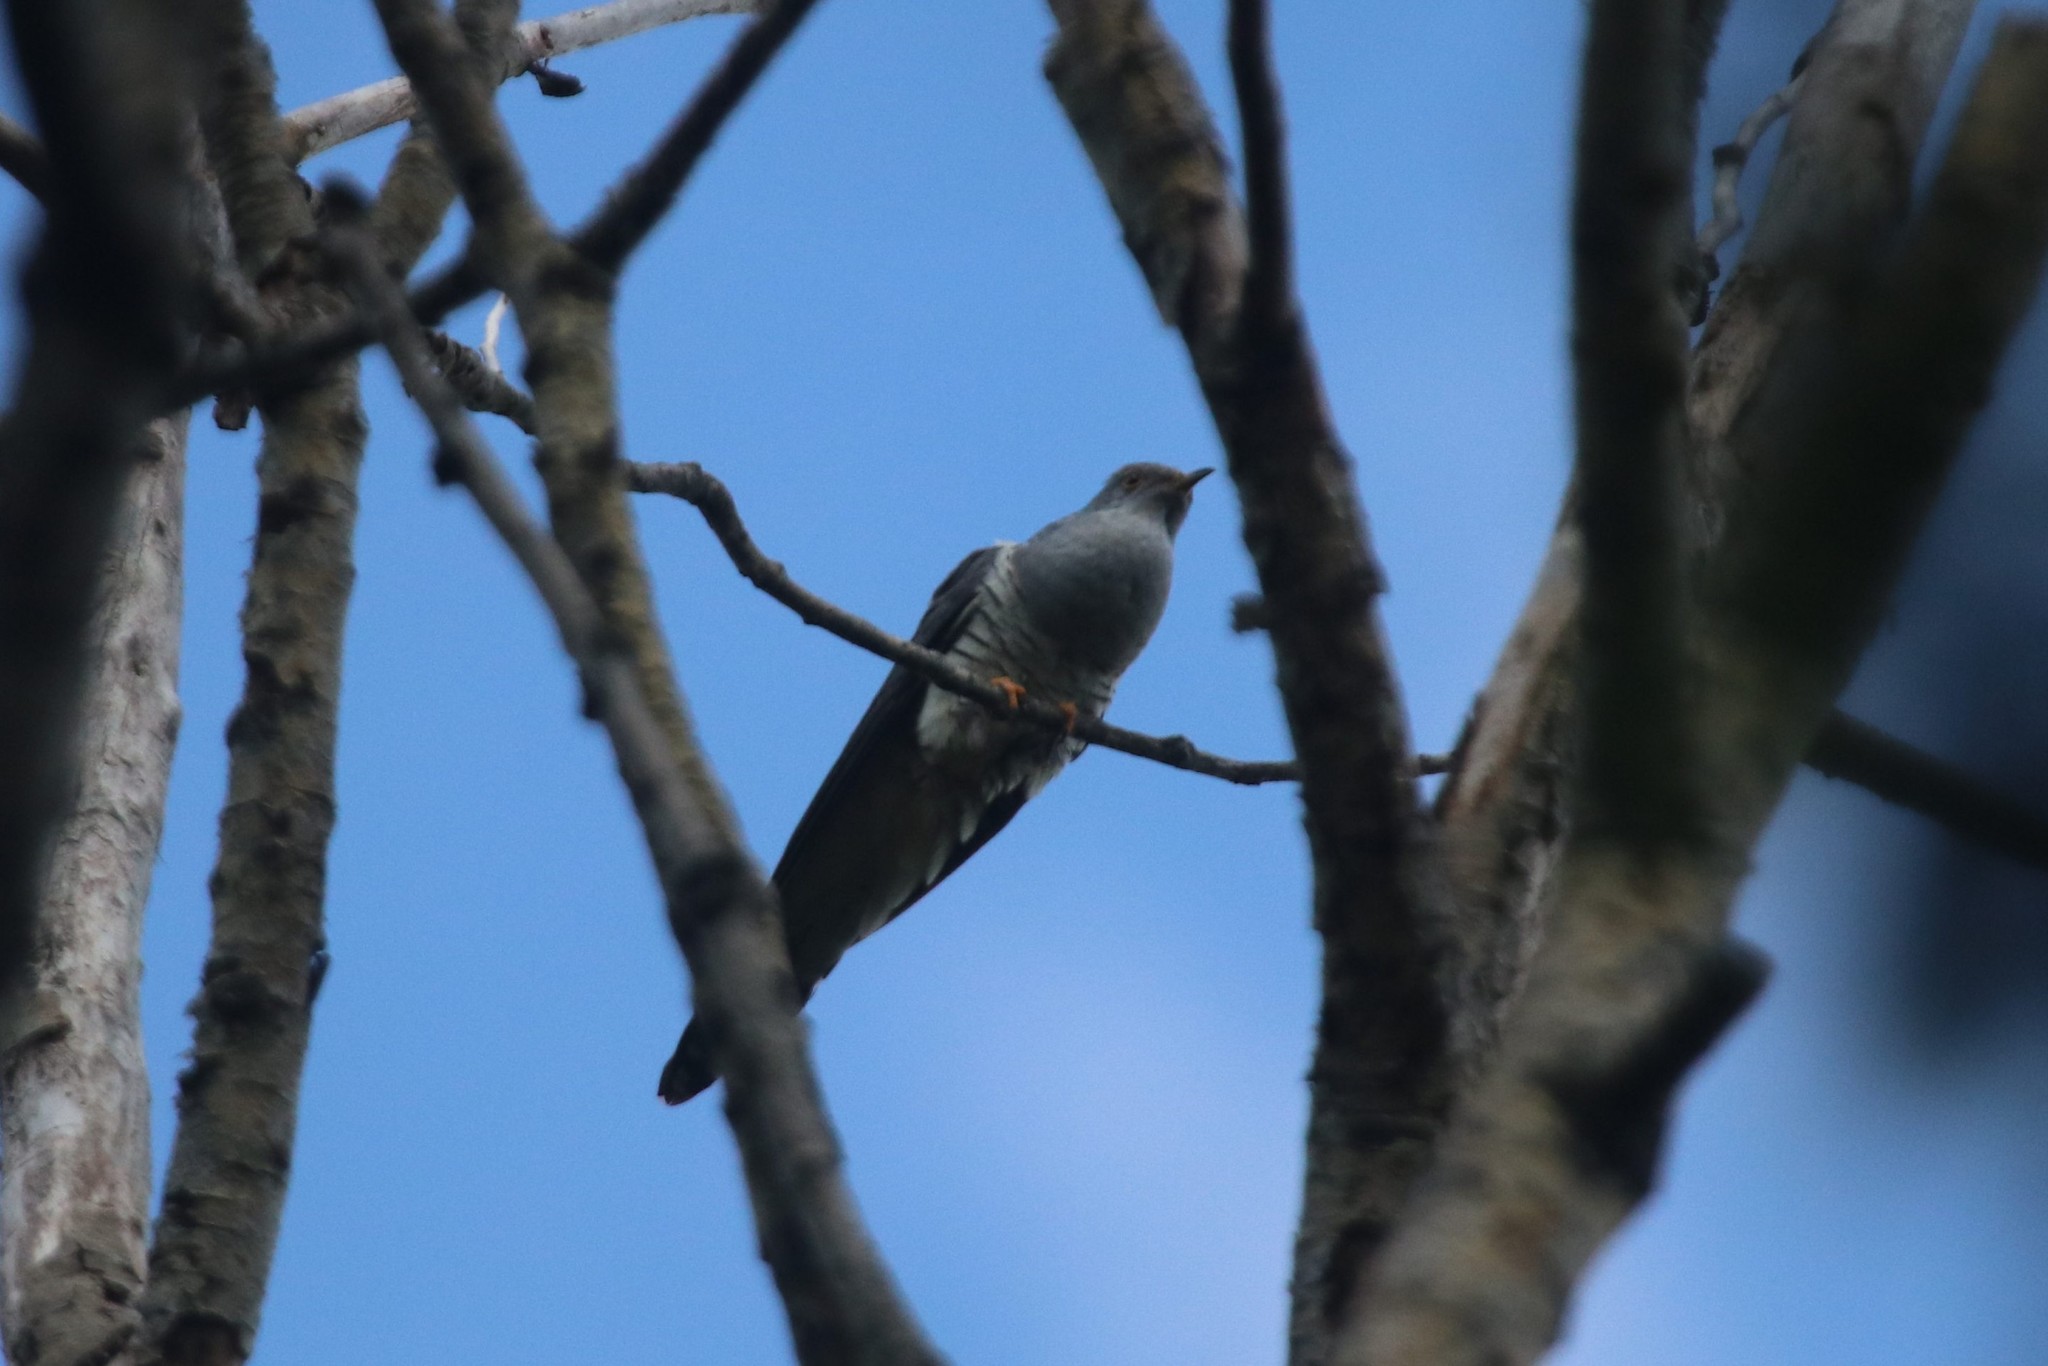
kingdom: Animalia
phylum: Chordata
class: Aves
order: Cuculiformes
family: Cuculidae
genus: Cuculus
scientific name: Cuculus optatus
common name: Oriental cuckoo
